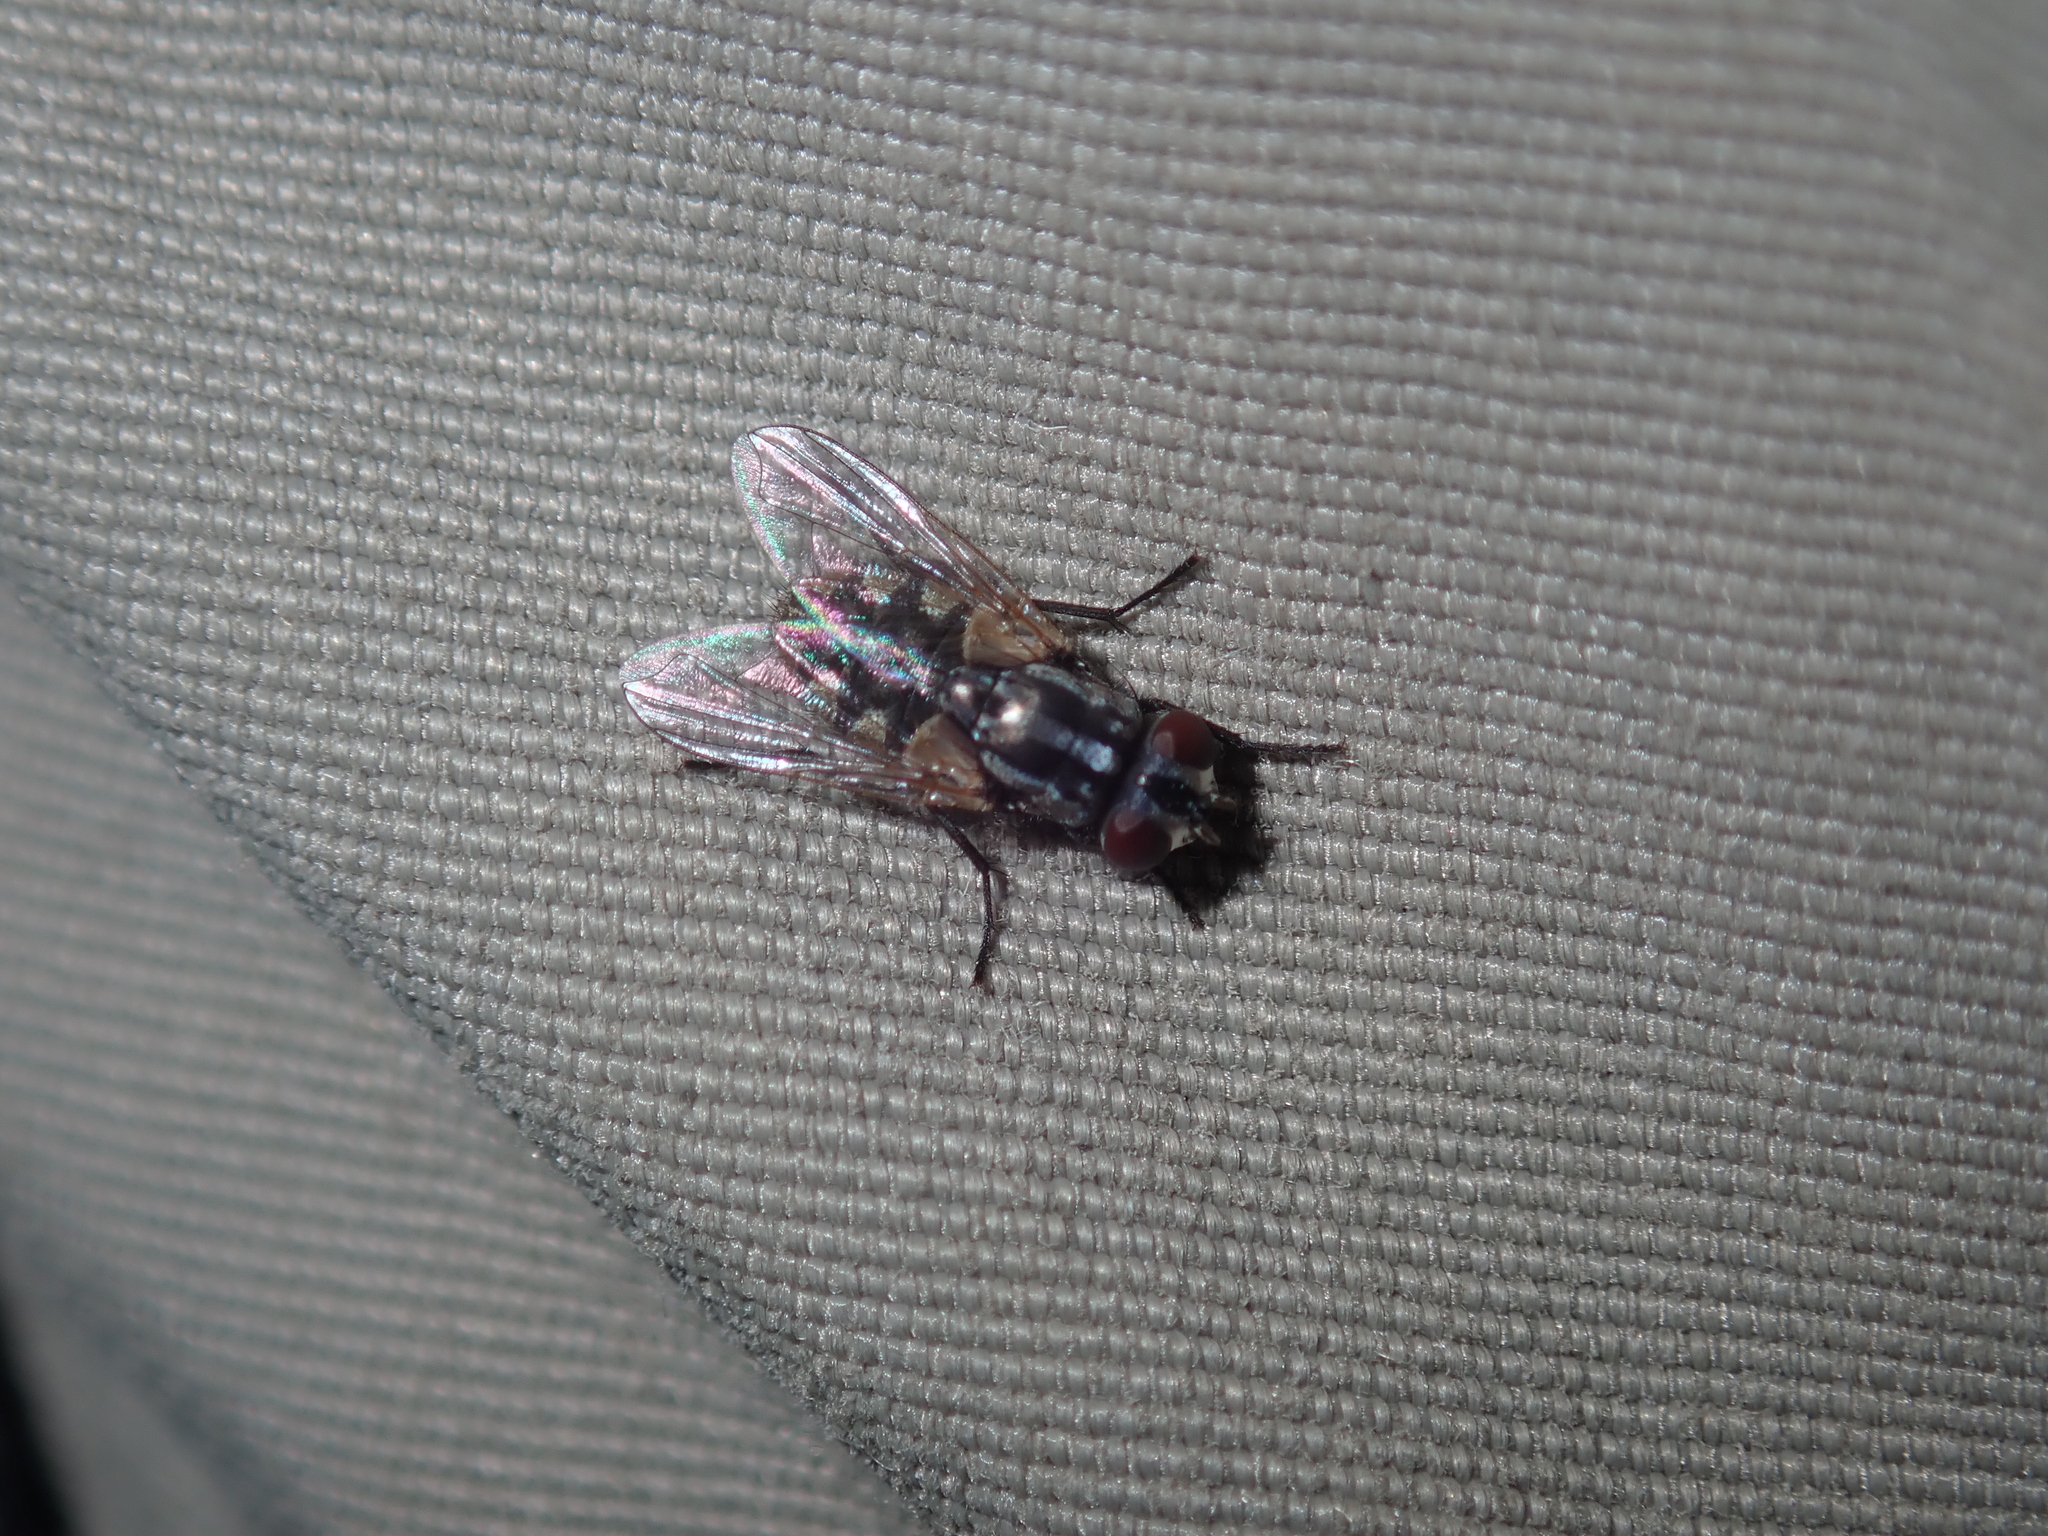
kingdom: Animalia
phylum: Arthropoda
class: Insecta
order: Diptera
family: Muscidae
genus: Musca
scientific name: Musca vetustissima
